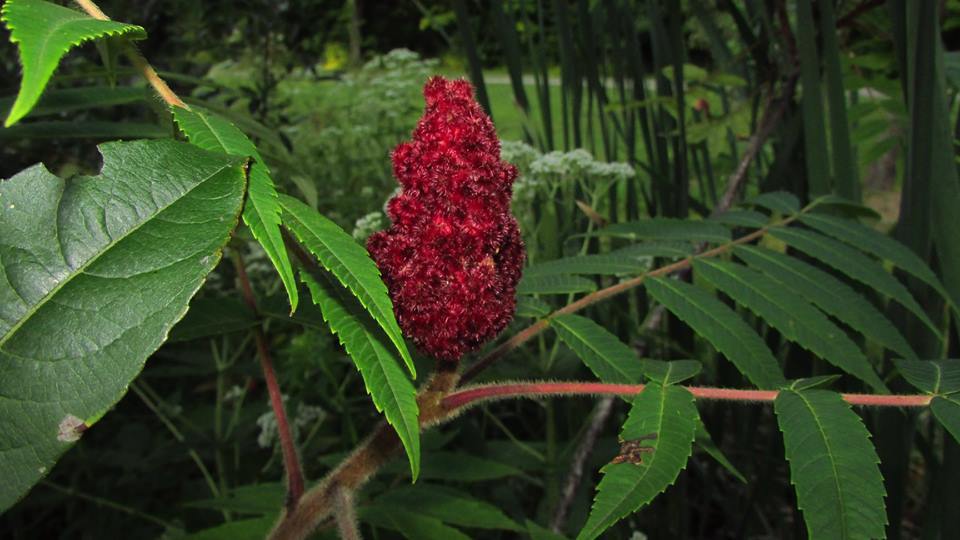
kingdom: Plantae
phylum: Tracheophyta
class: Magnoliopsida
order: Sapindales
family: Anacardiaceae
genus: Rhus
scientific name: Rhus typhina
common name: Staghorn sumac
